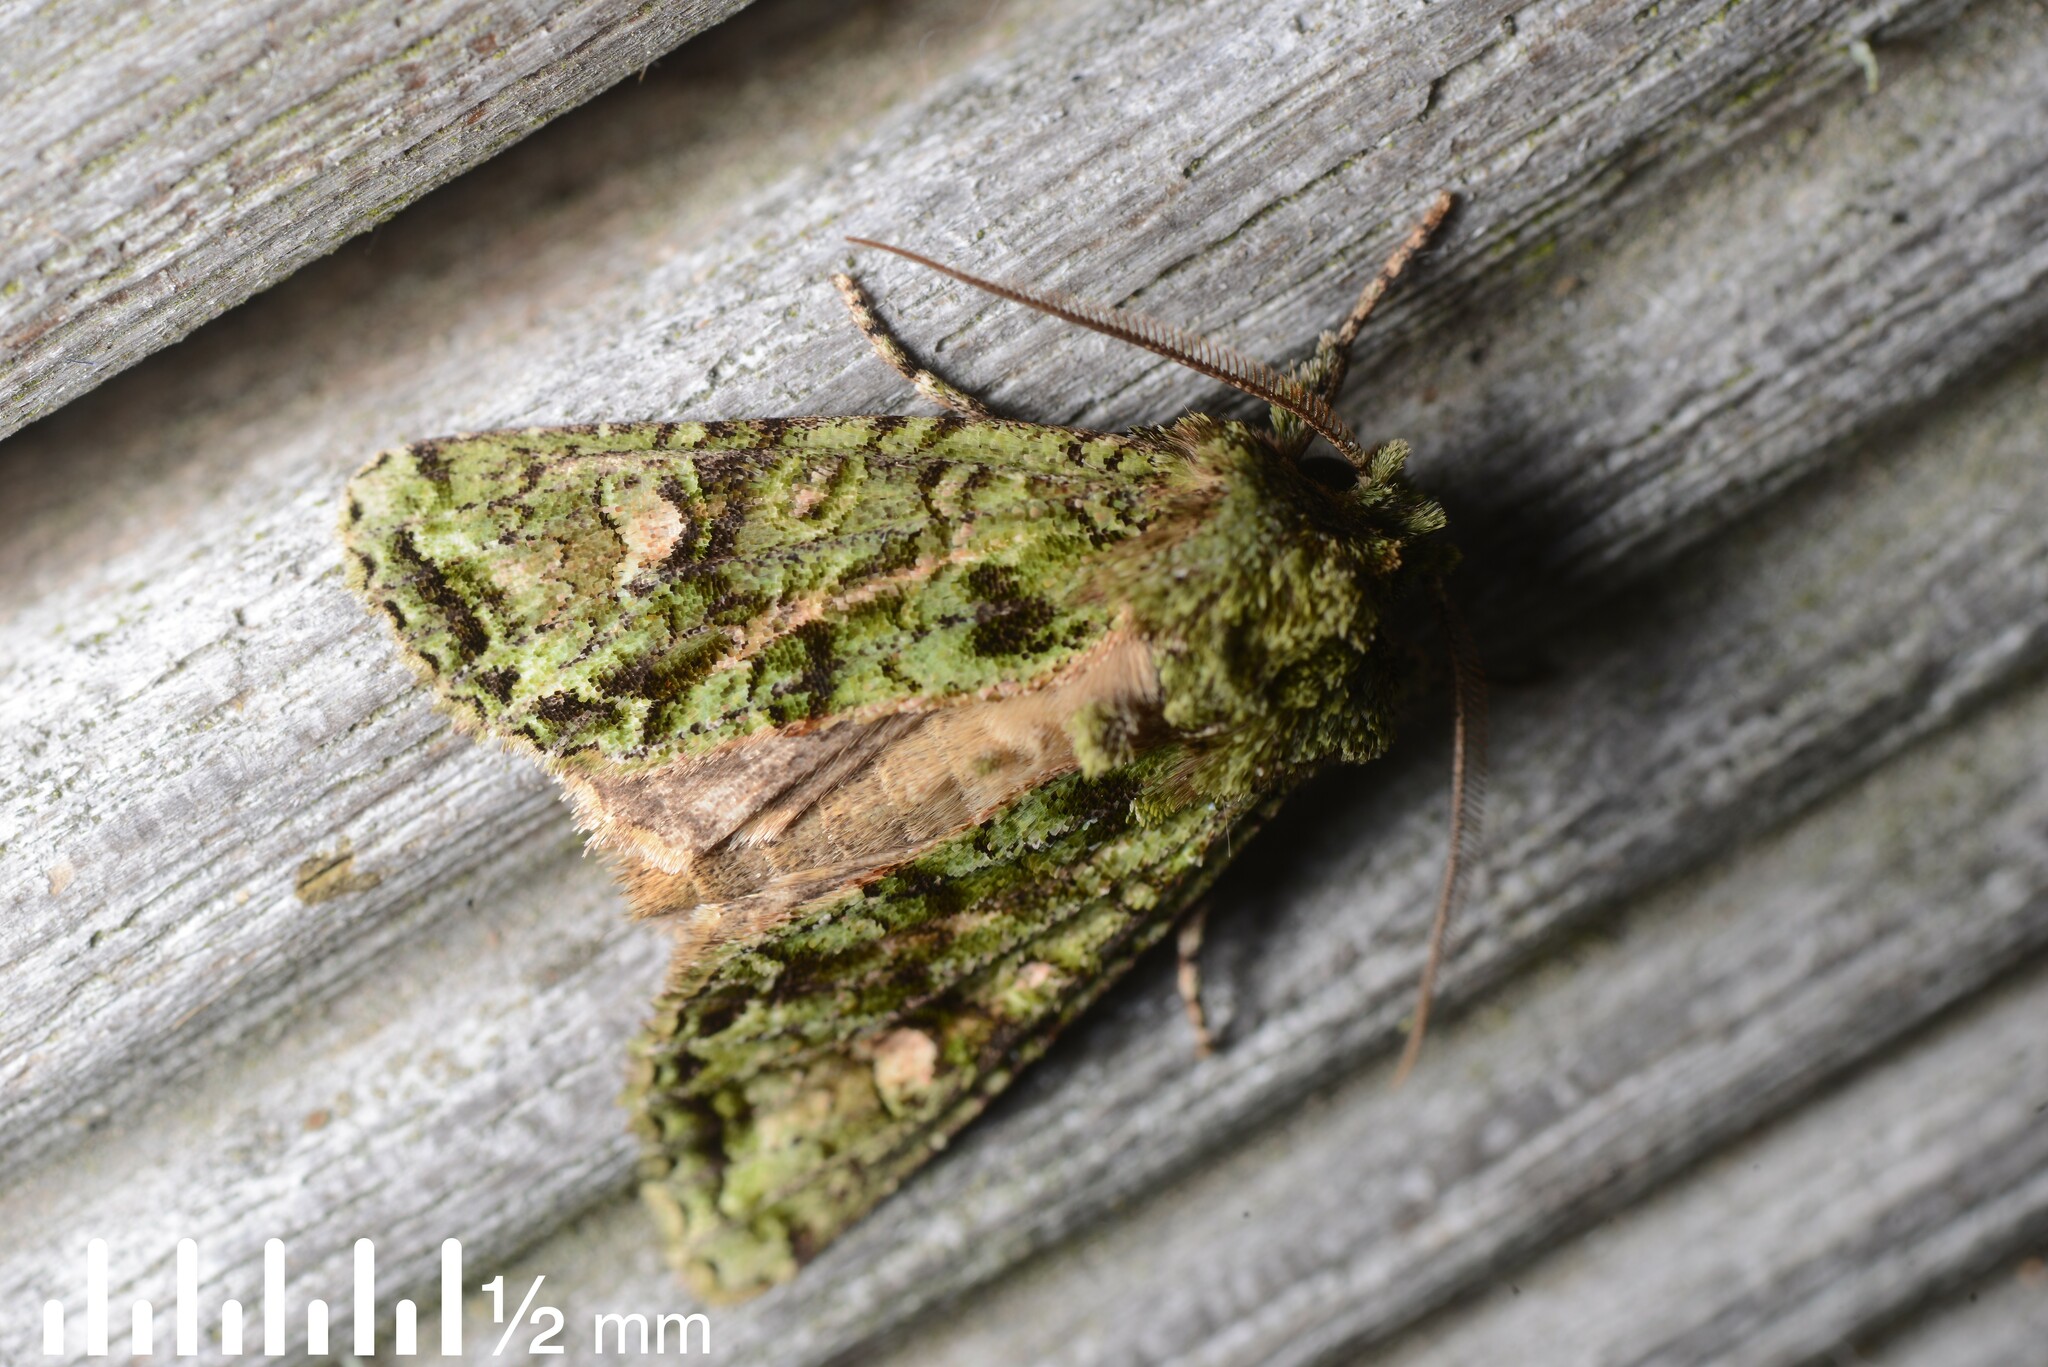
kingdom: Animalia
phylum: Arthropoda
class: Insecta
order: Lepidoptera
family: Noctuidae
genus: Ichneutica
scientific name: Ichneutica
